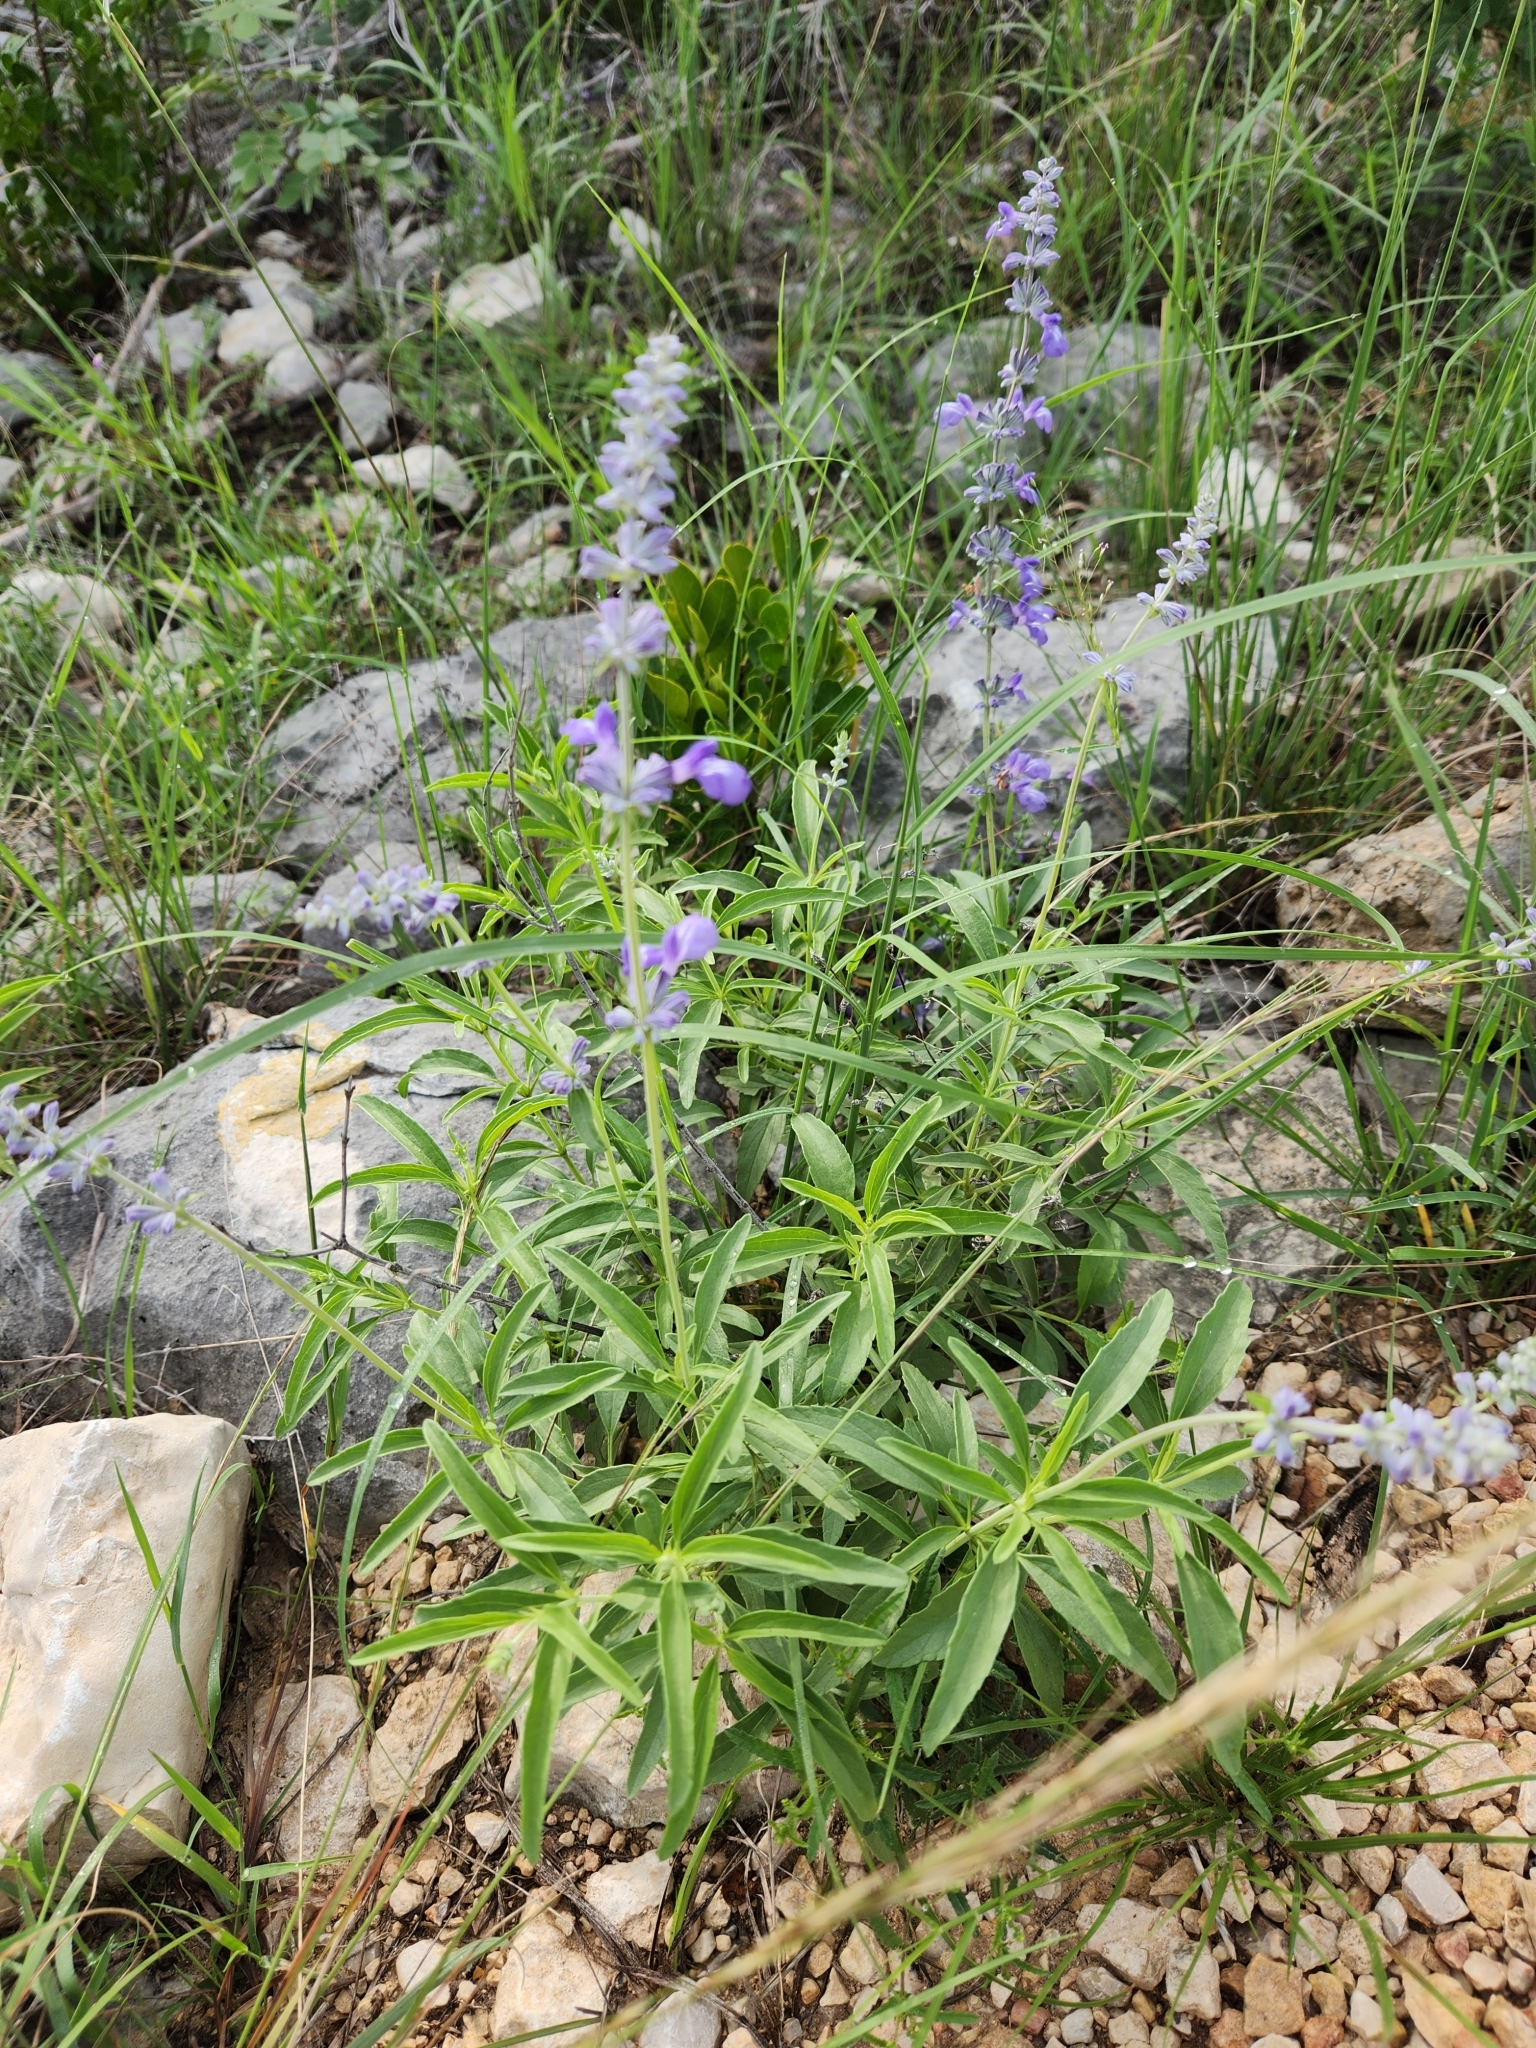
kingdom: Plantae
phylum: Tracheophyta
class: Magnoliopsida
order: Lamiales
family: Lamiaceae
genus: Salvia
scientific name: Salvia farinacea
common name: Mealy sage
